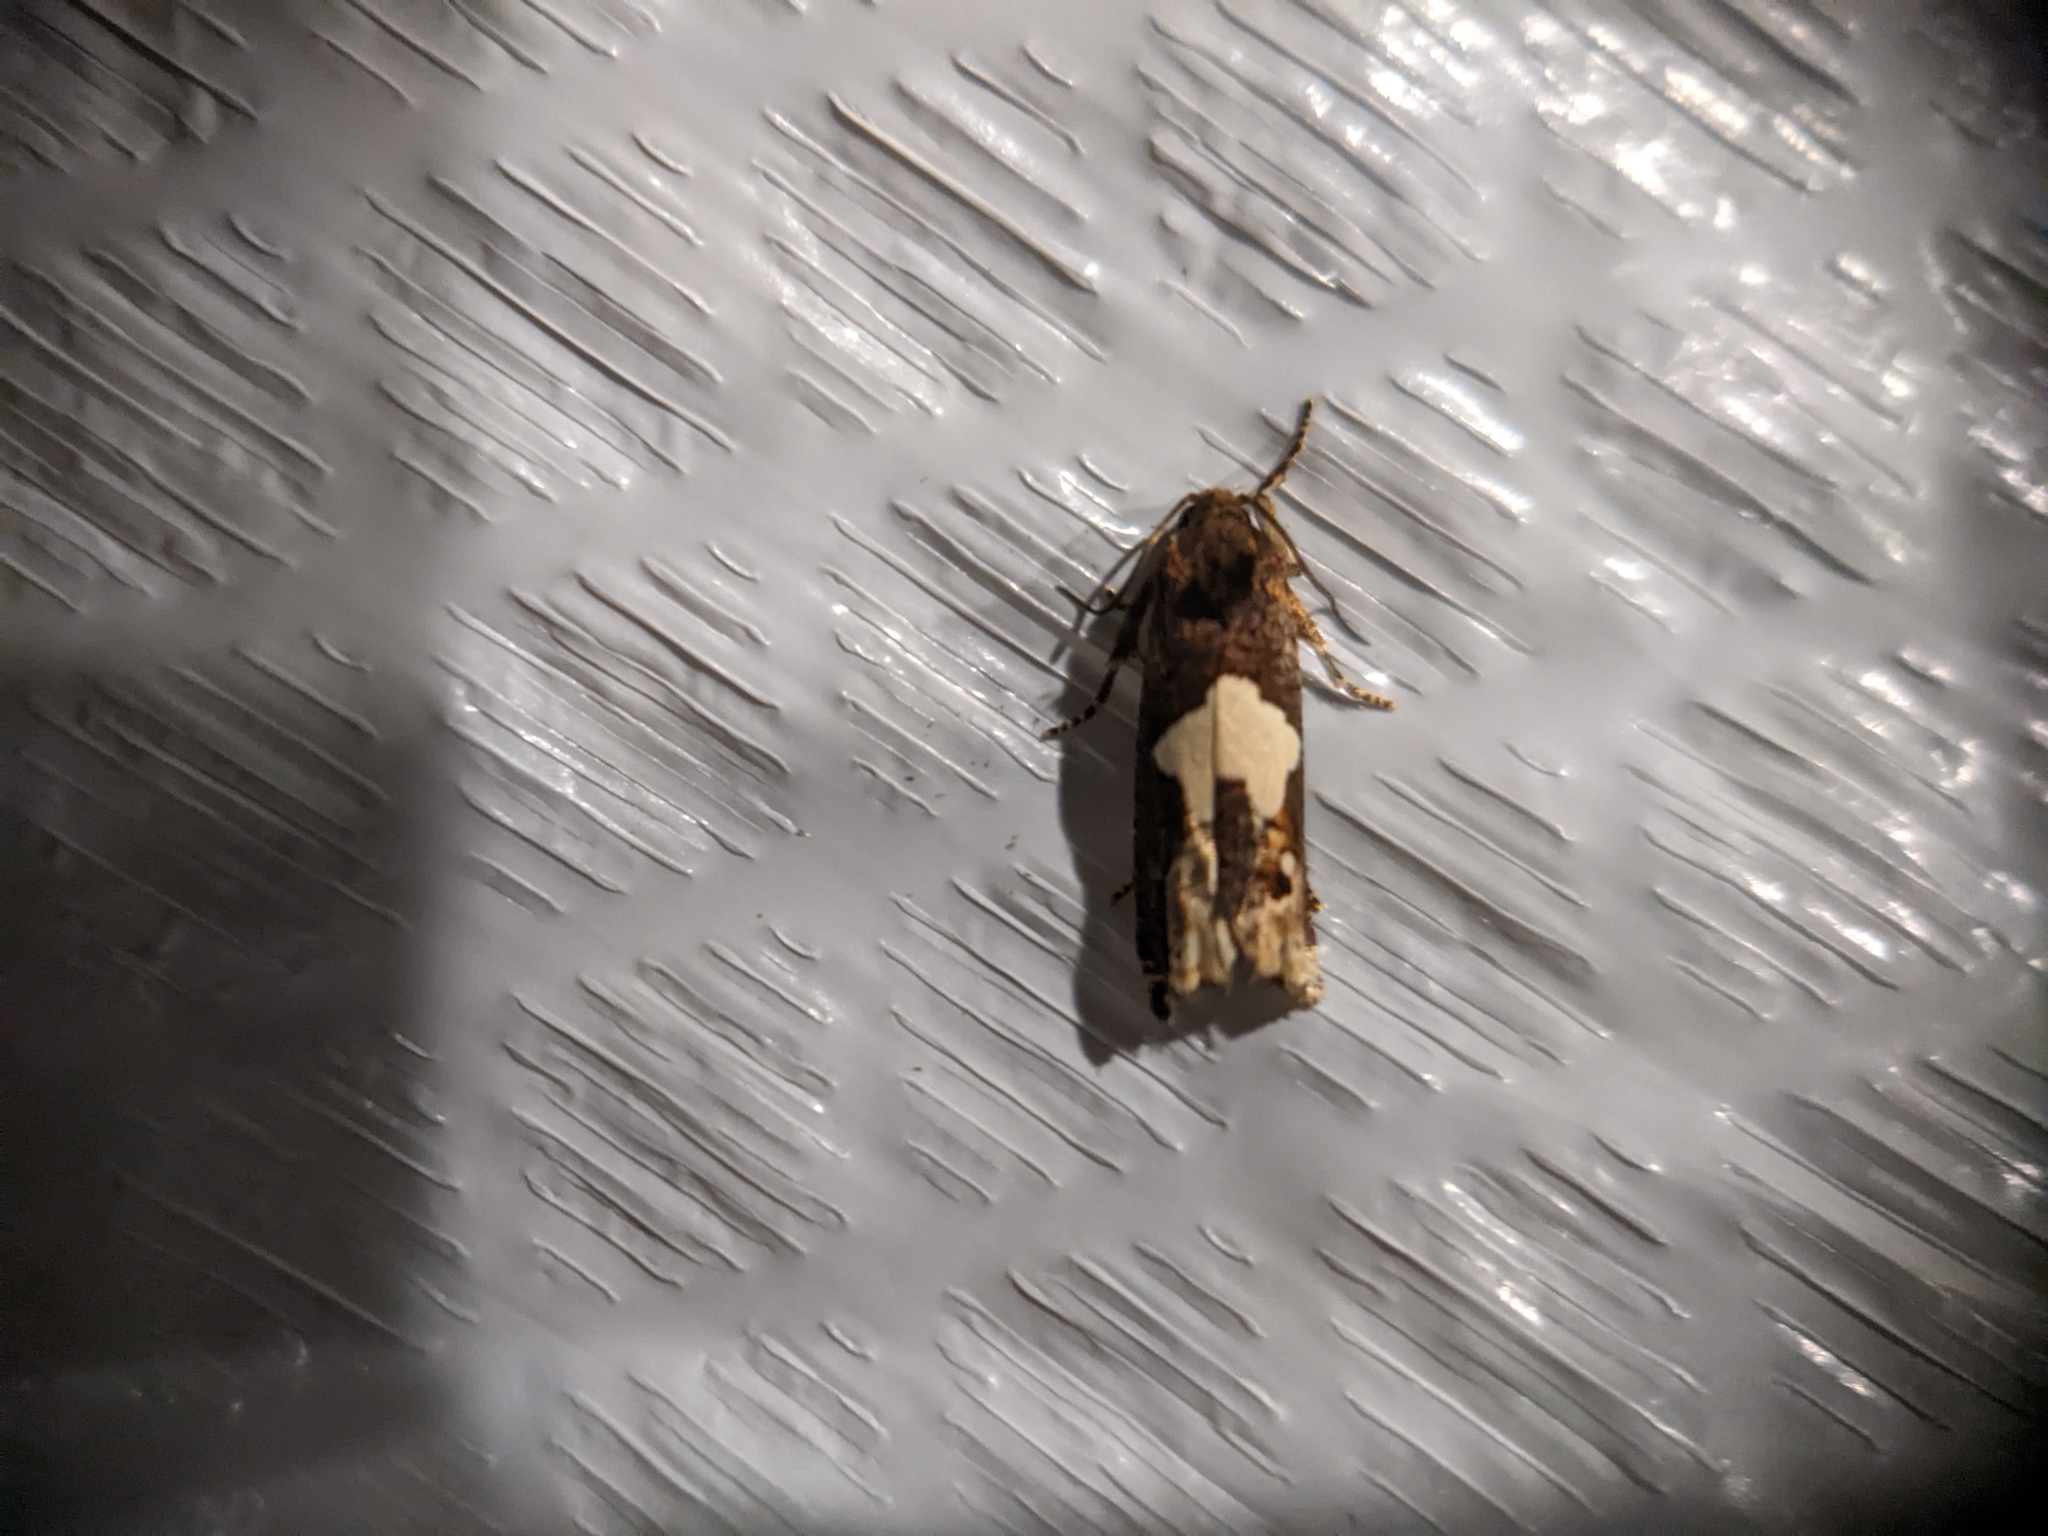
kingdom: Animalia
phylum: Arthropoda
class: Insecta
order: Lepidoptera
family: Tortricidae
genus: Epiblema
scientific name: Epiblema otiosana
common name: Bidens borer moth
